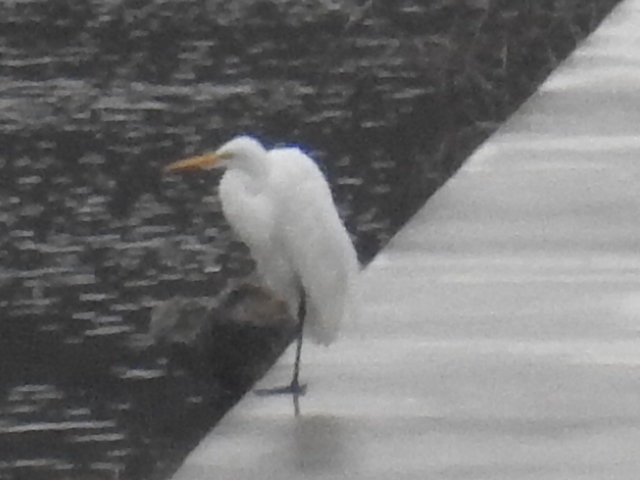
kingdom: Animalia
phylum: Chordata
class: Aves
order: Pelecaniformes
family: Ardeidae
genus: Ardea
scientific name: Ardea alba
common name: Great egret
